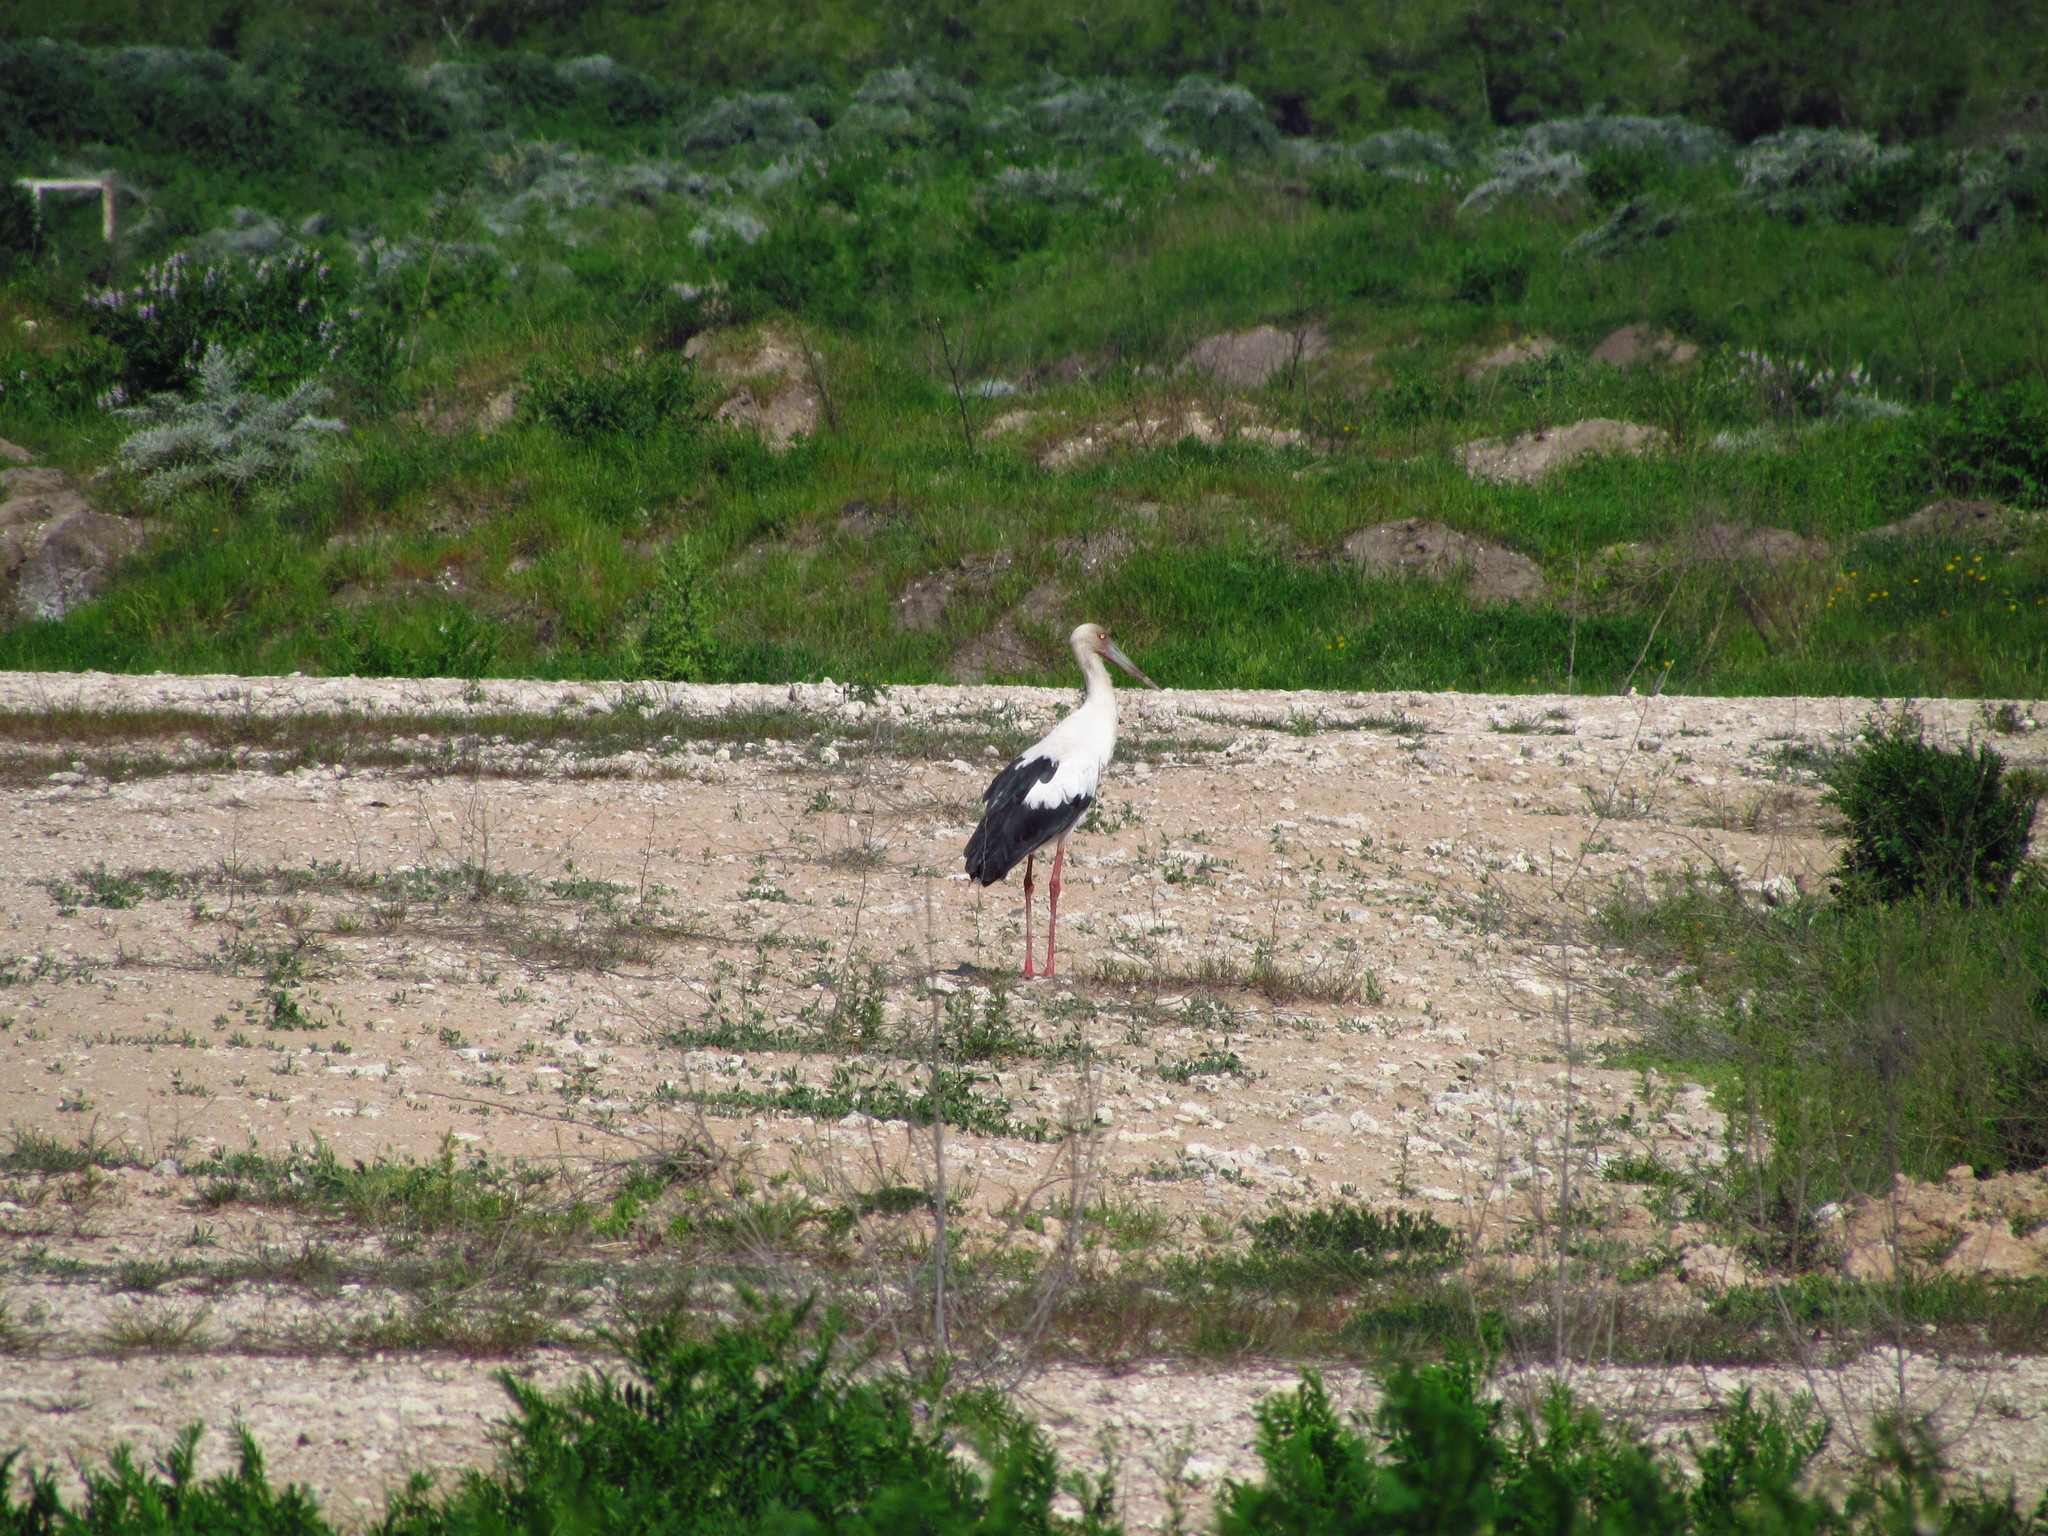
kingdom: Animalia
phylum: Chordata
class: Aves
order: Ciconiiformes
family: Ciconiidae
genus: Ciconia
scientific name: Ciconia maguari
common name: Maguari stork
